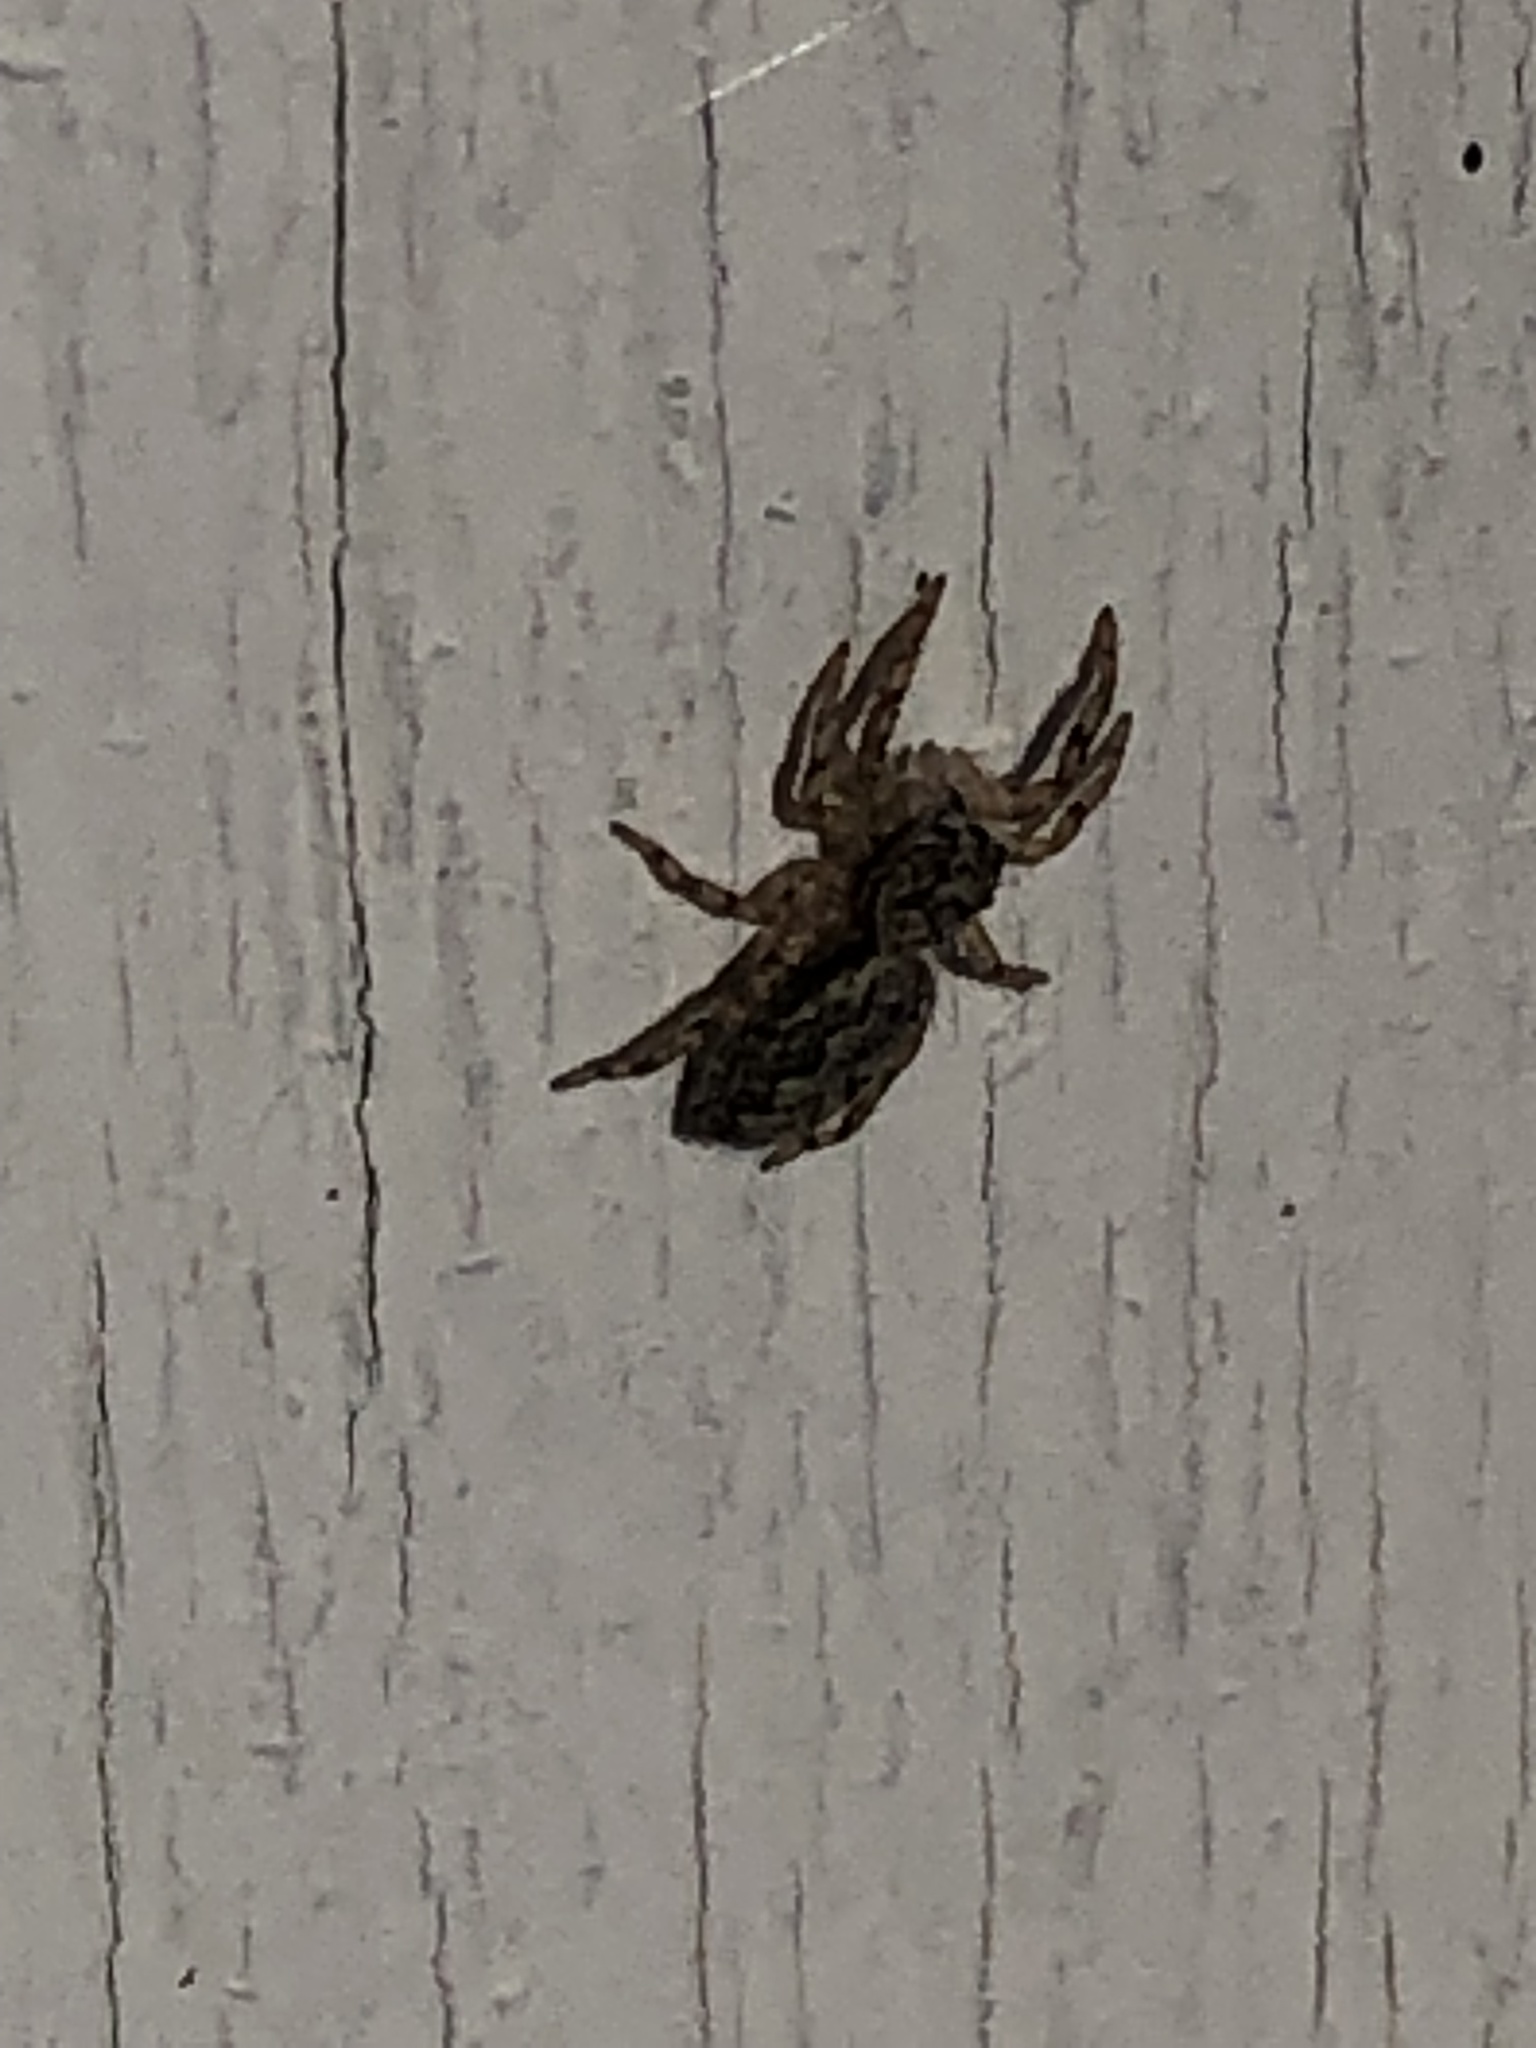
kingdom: Animalia
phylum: Arthropoda
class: Arachnida
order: Araneae
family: Salticidae
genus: Platycryptus
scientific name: Platycryptus undatus
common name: Tan jumping spider
